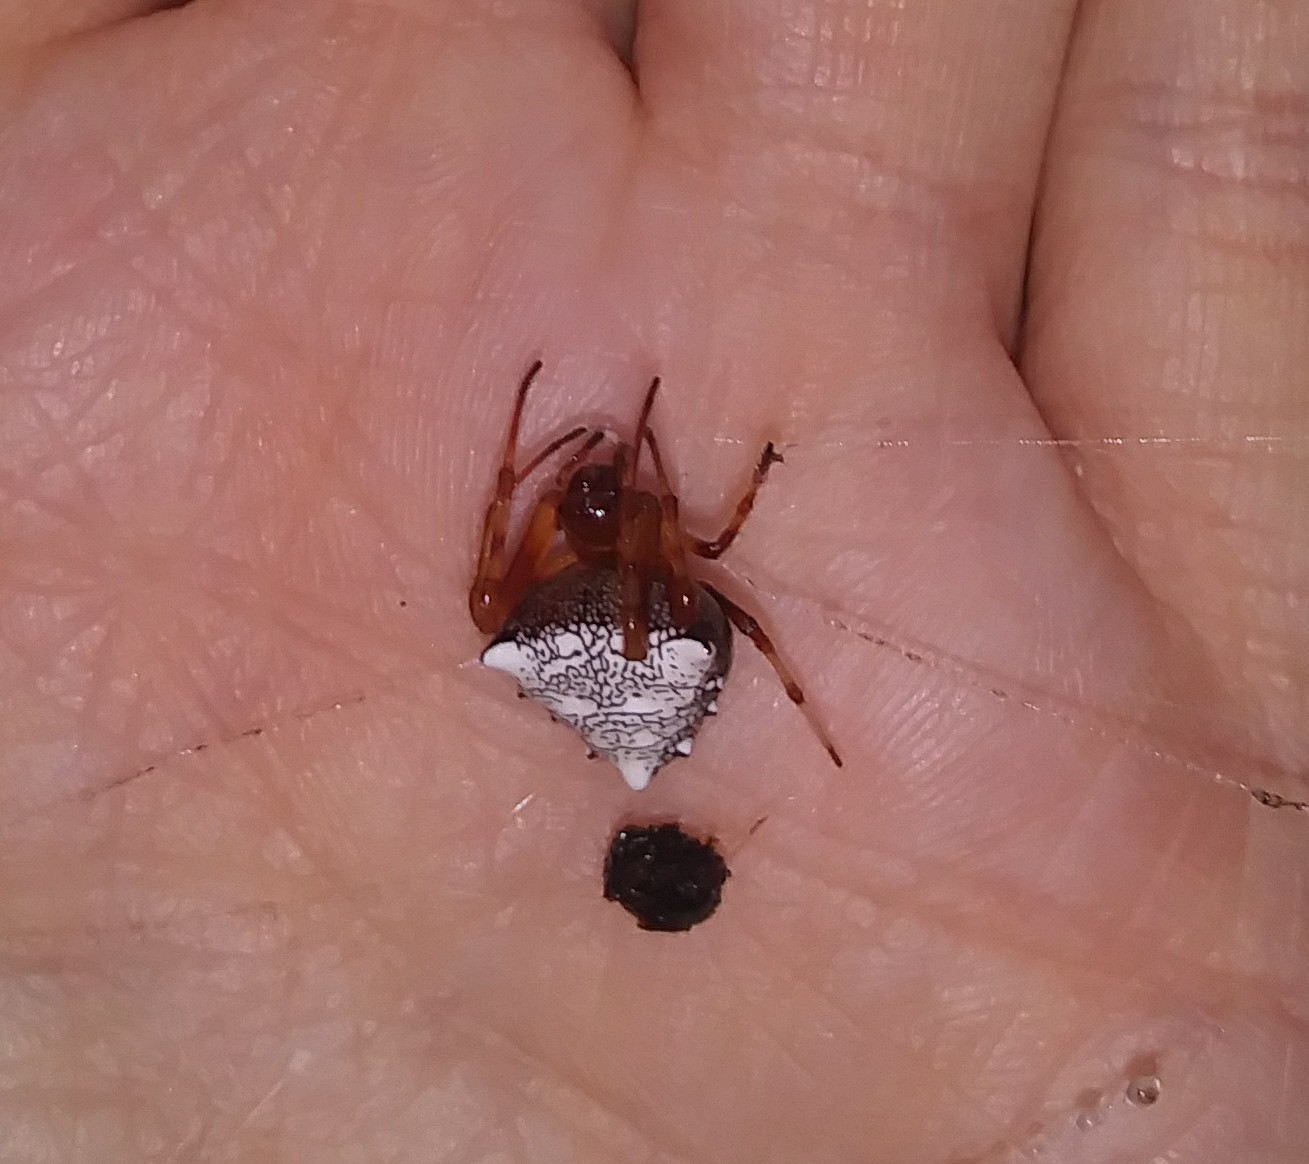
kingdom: Animalia
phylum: Arthropoda
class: Arachnida
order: Araneae
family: Araneidae
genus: Verrucosa
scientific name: Verrucosa arenata
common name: Orb weavers
